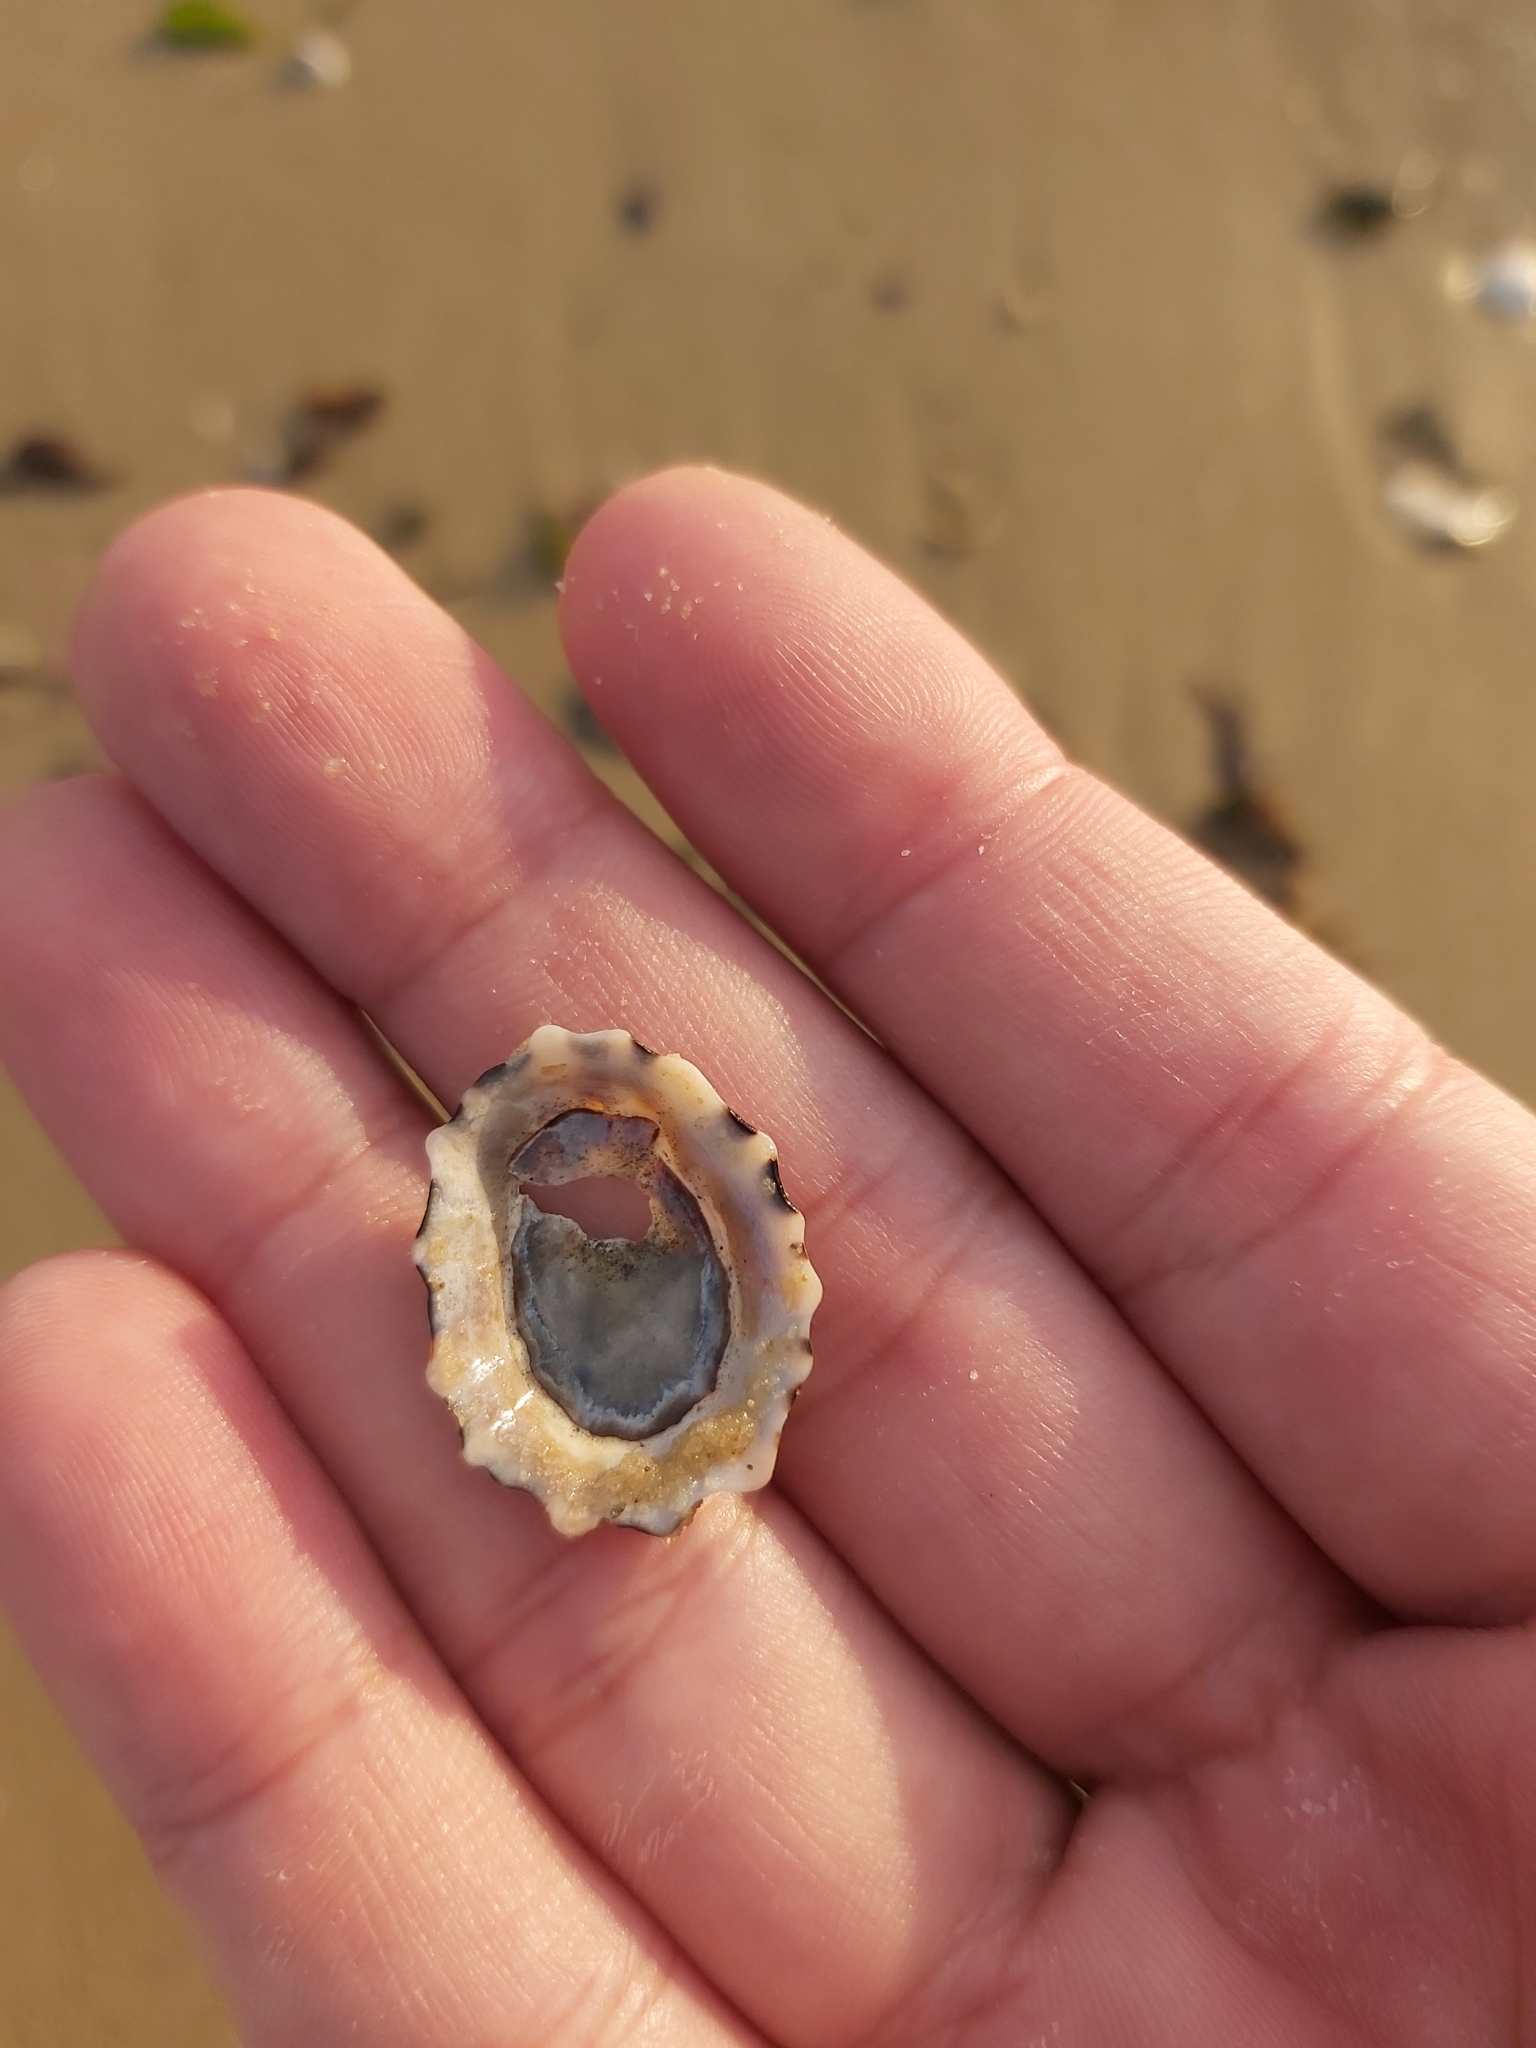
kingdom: Animalia
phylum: Mollusca
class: Gastropoda
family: Lottiidae
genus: Patelloida
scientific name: Patelloida alticostata
